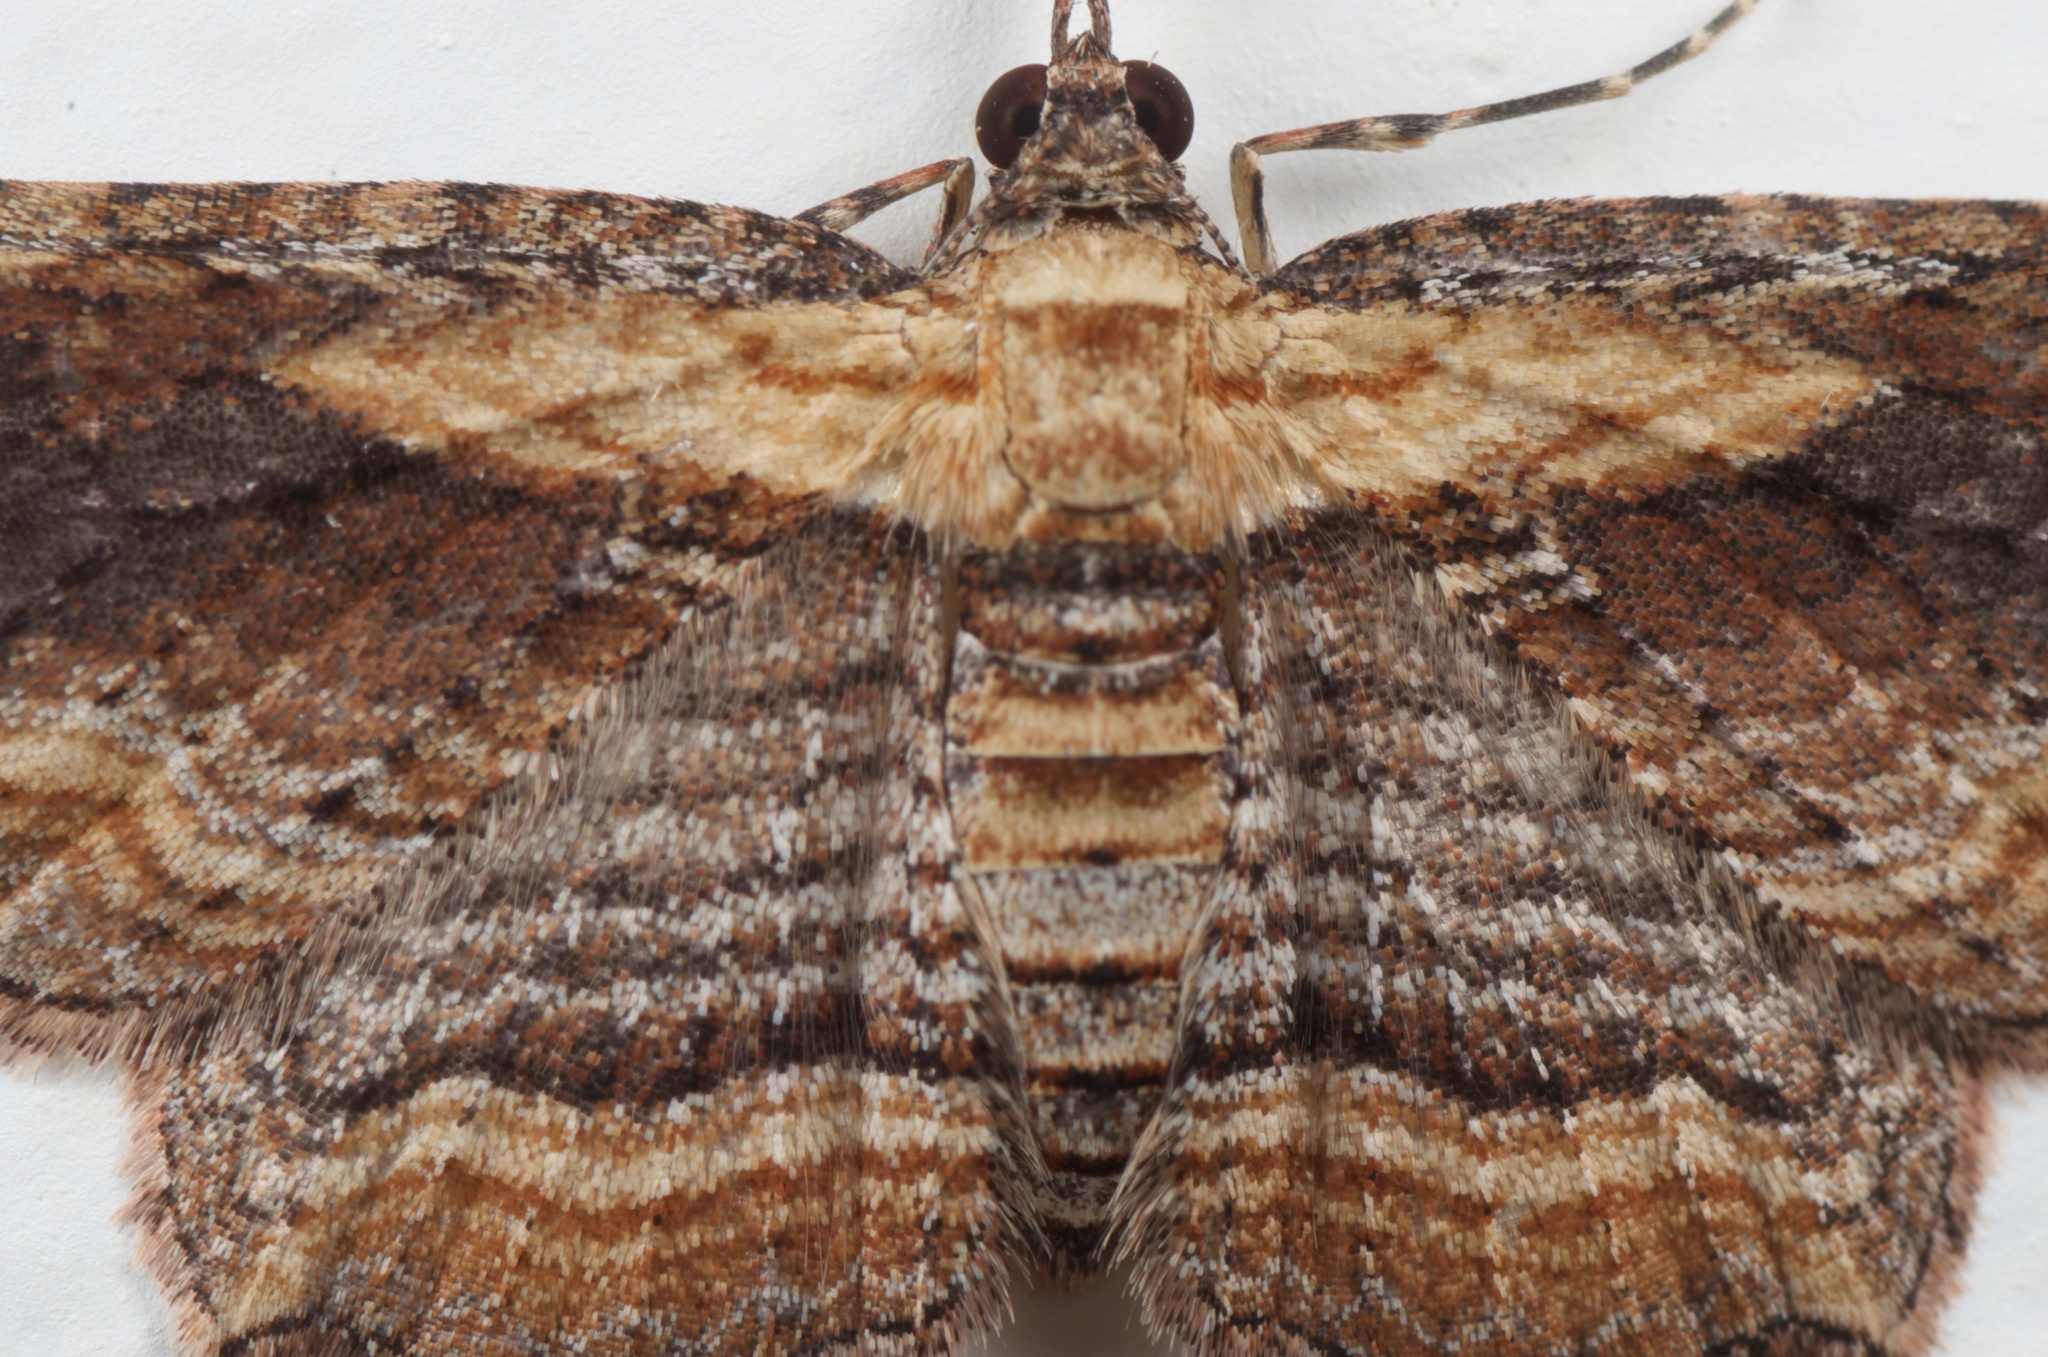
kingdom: Animalia
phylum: Arthropoda
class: Insecta
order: Lepidoptera
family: Geometridae
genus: Chloroclystis
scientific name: Chloroclystis filata
